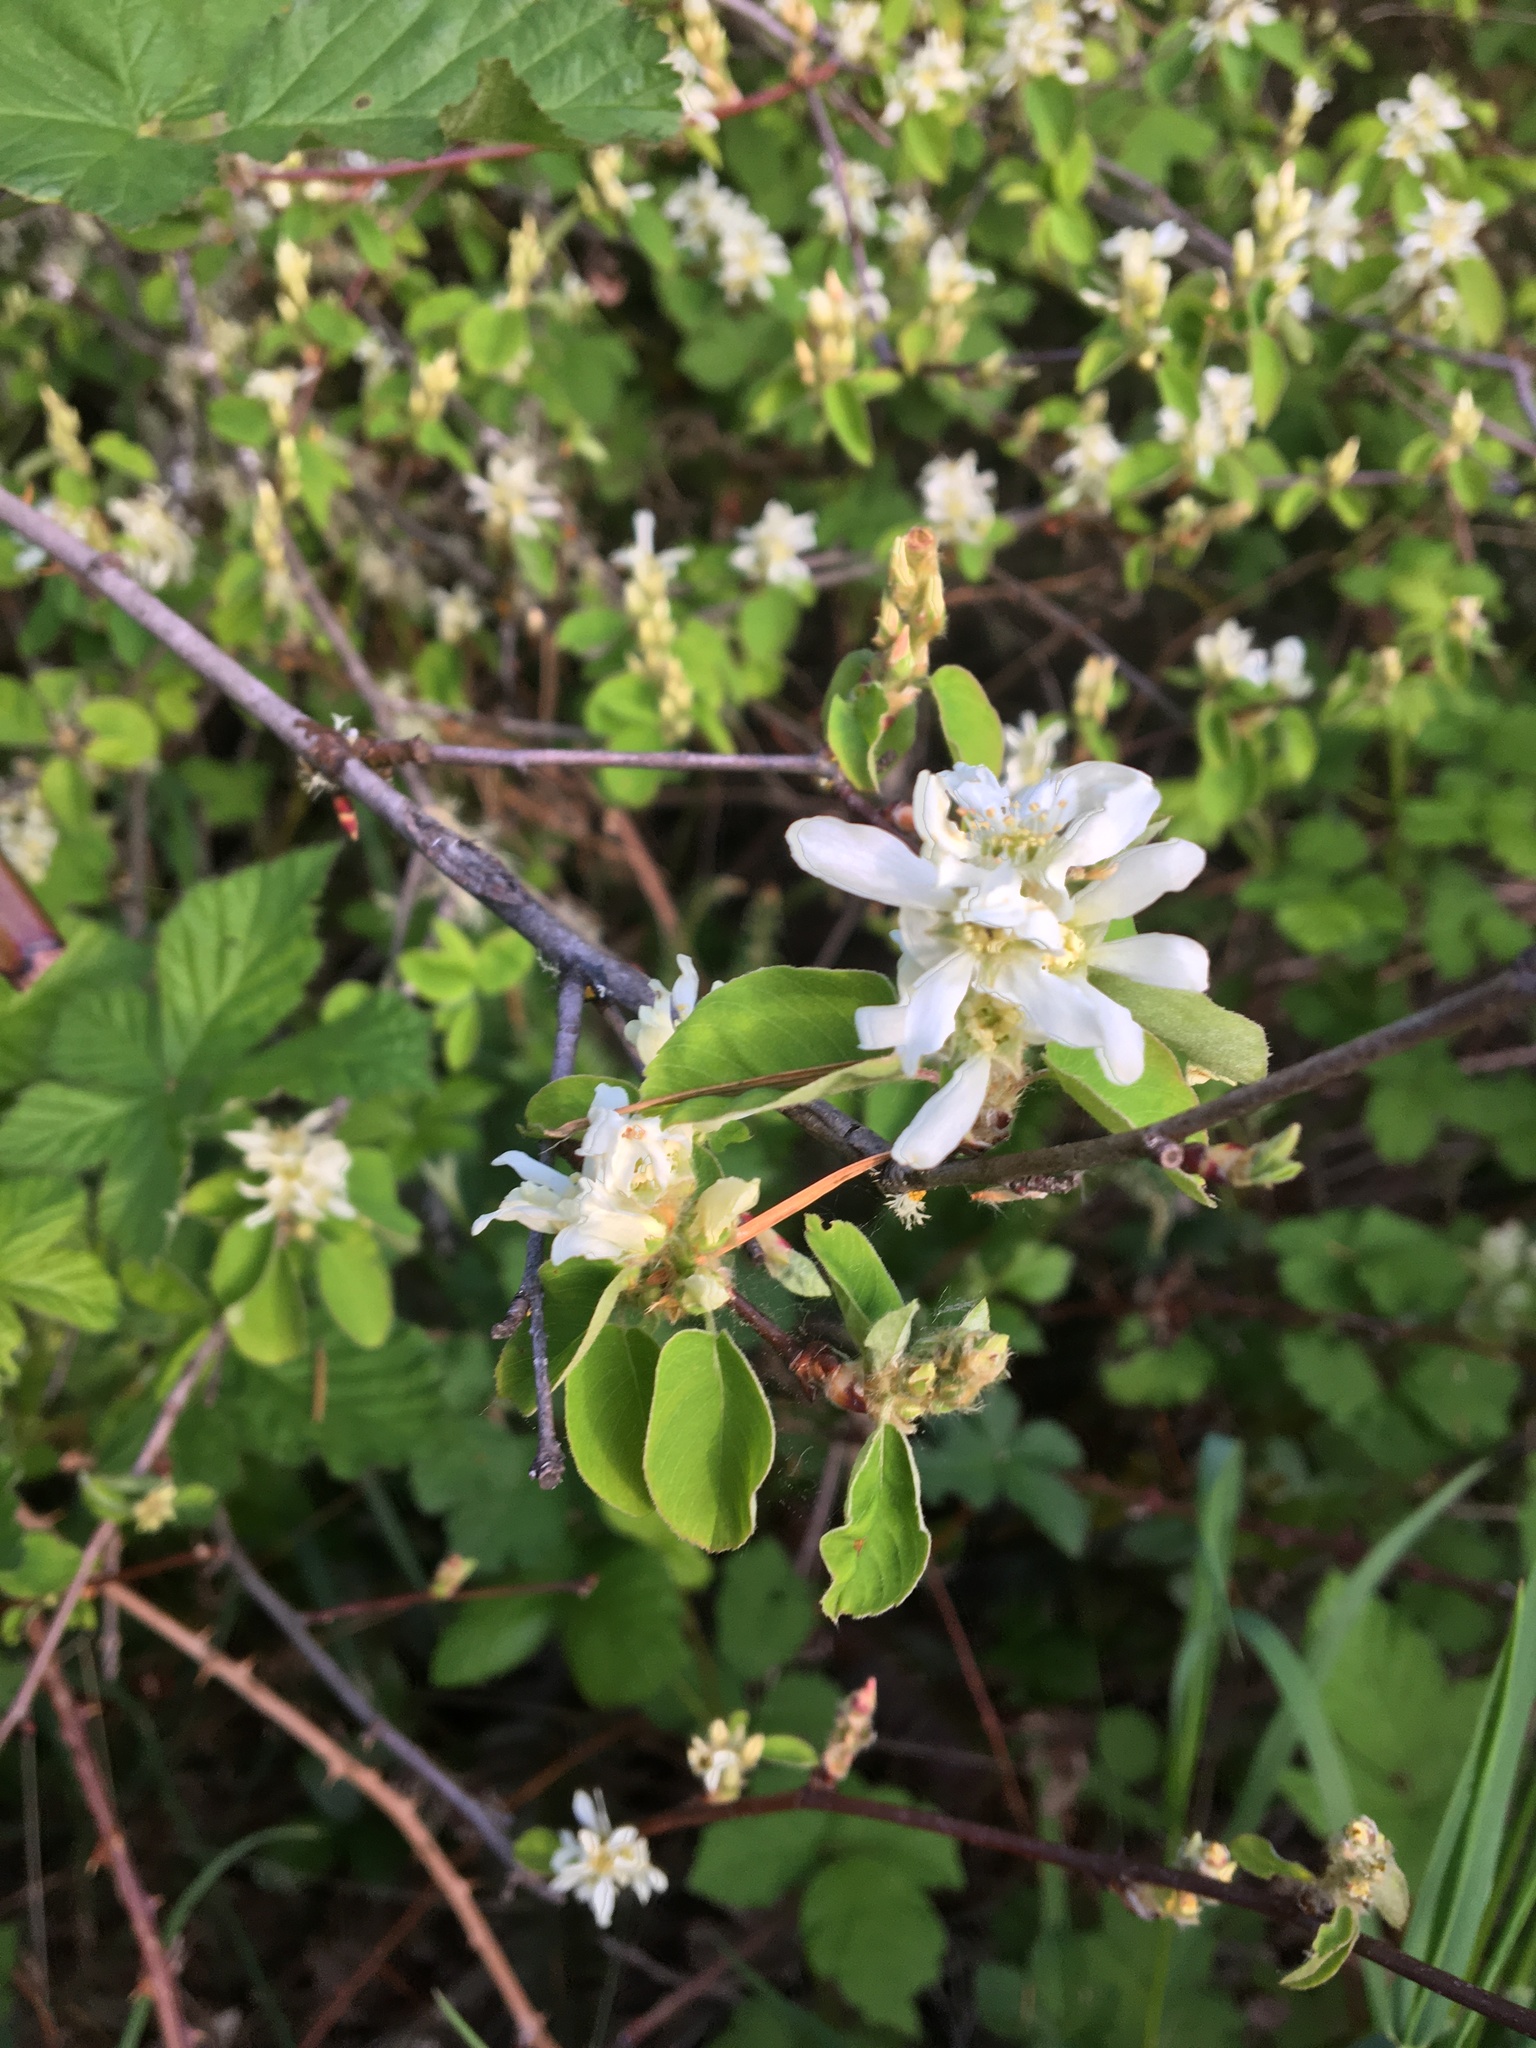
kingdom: Plantae
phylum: Tracheophyta
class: Magnoliopsida
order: Rosales
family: Rosaceae
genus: Amelanchier
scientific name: Amelanchier alnifolia
